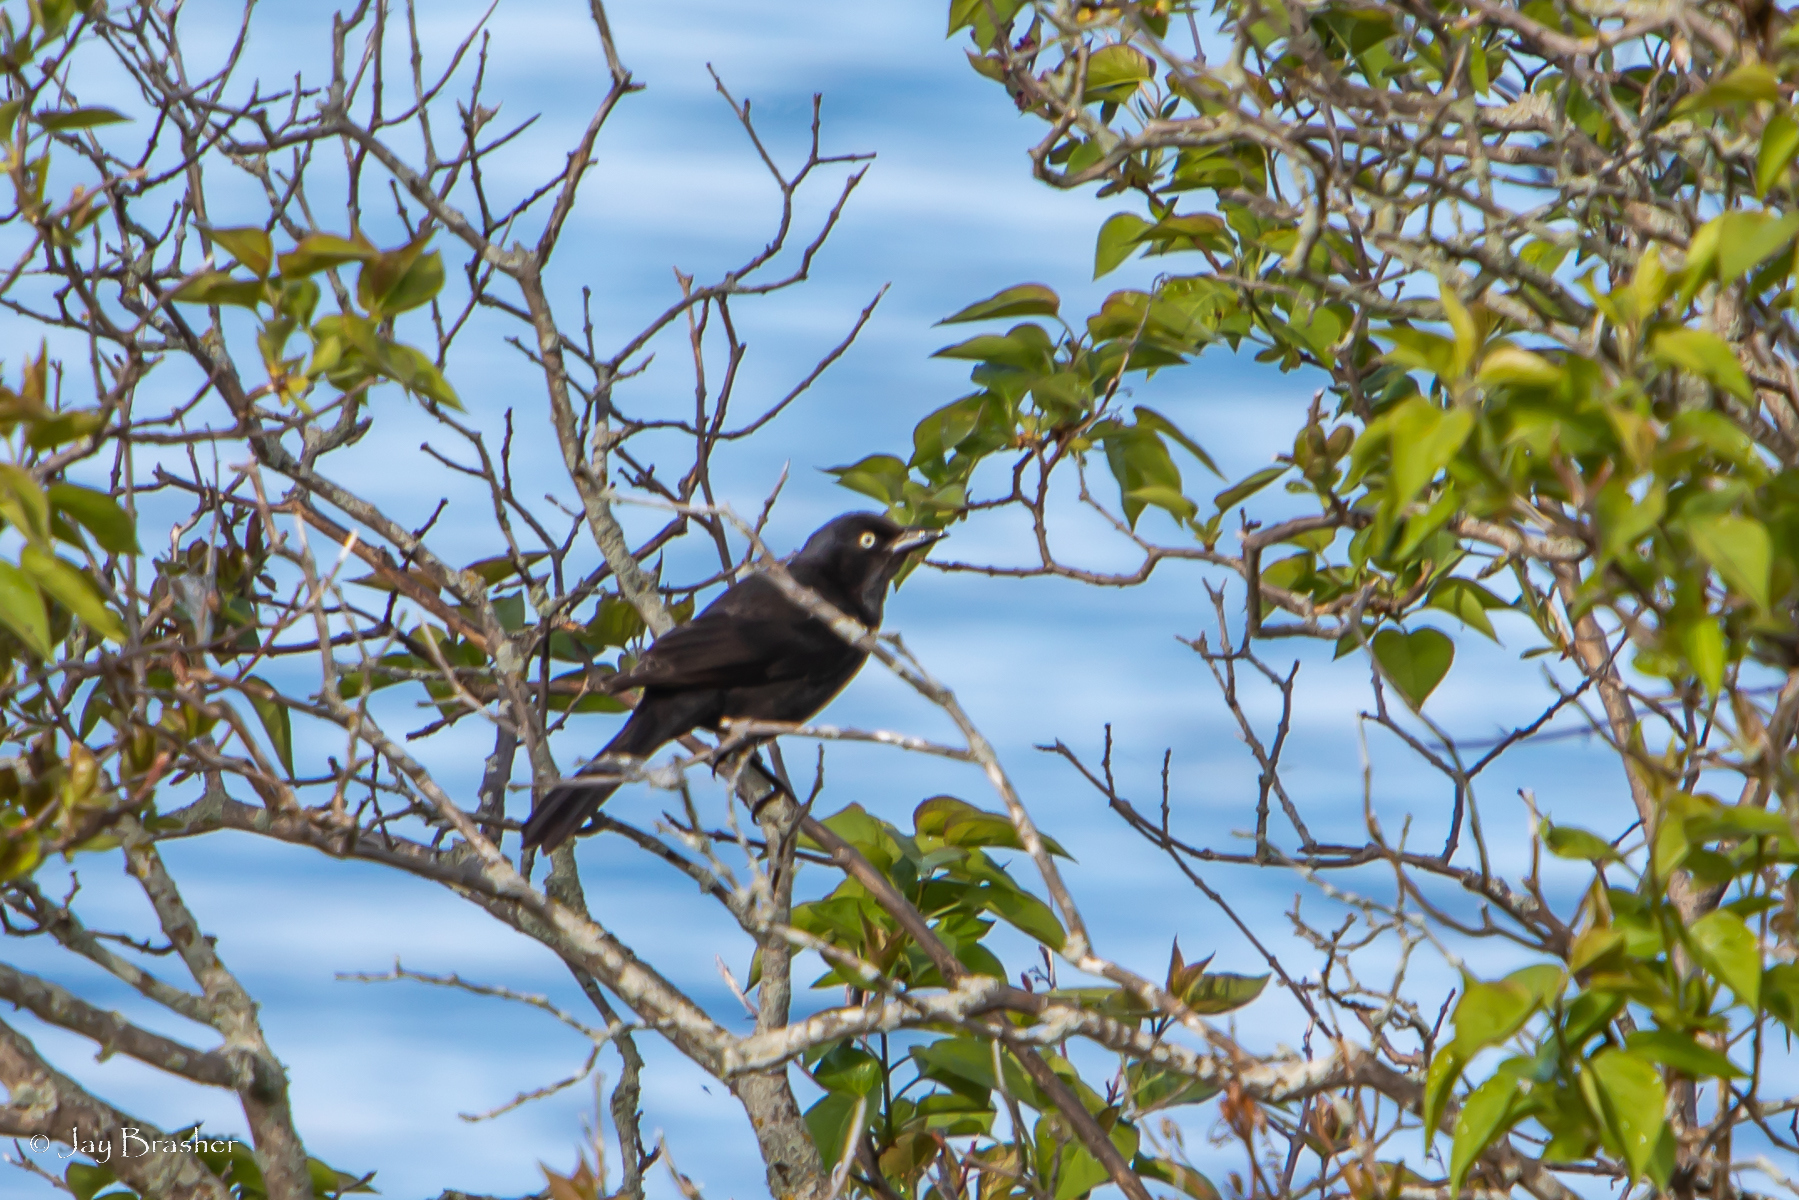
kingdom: Animalia
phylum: Chordata
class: Aves
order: Passeriformes
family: Icteridae
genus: Quiscalus
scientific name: Quiscalus quiscula
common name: Common grackle
